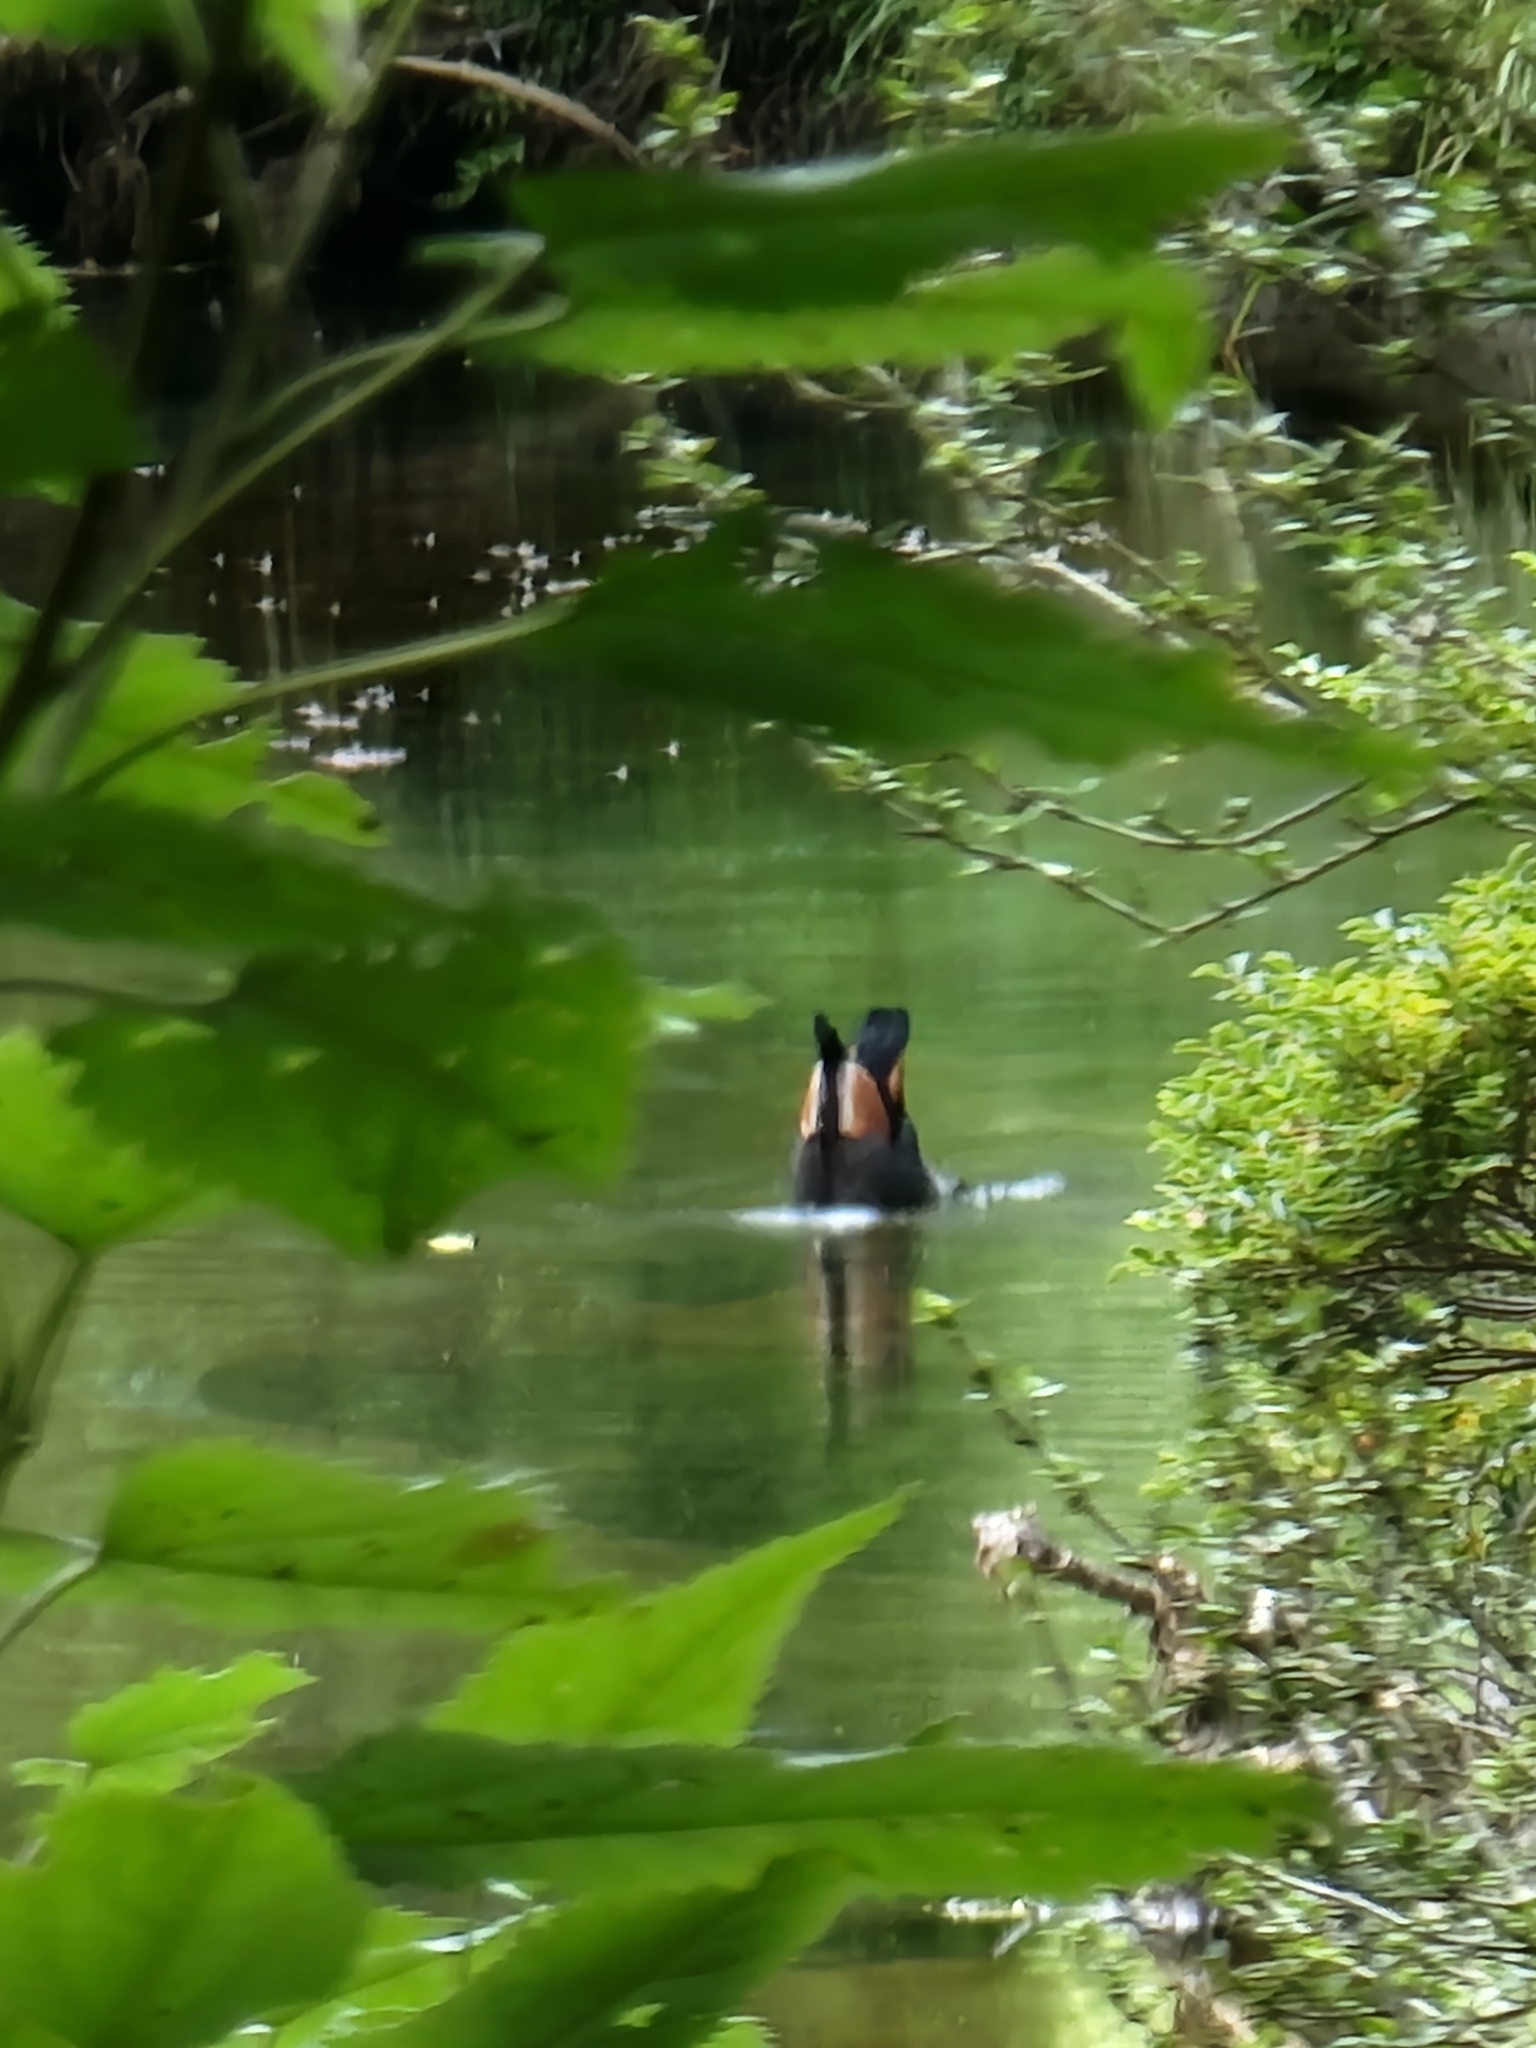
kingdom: Animalia
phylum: Chordata
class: Aves
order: Anseriformes
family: Anatidae
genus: Tadorna
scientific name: Tadorna variegata
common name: Paradise shelduck
